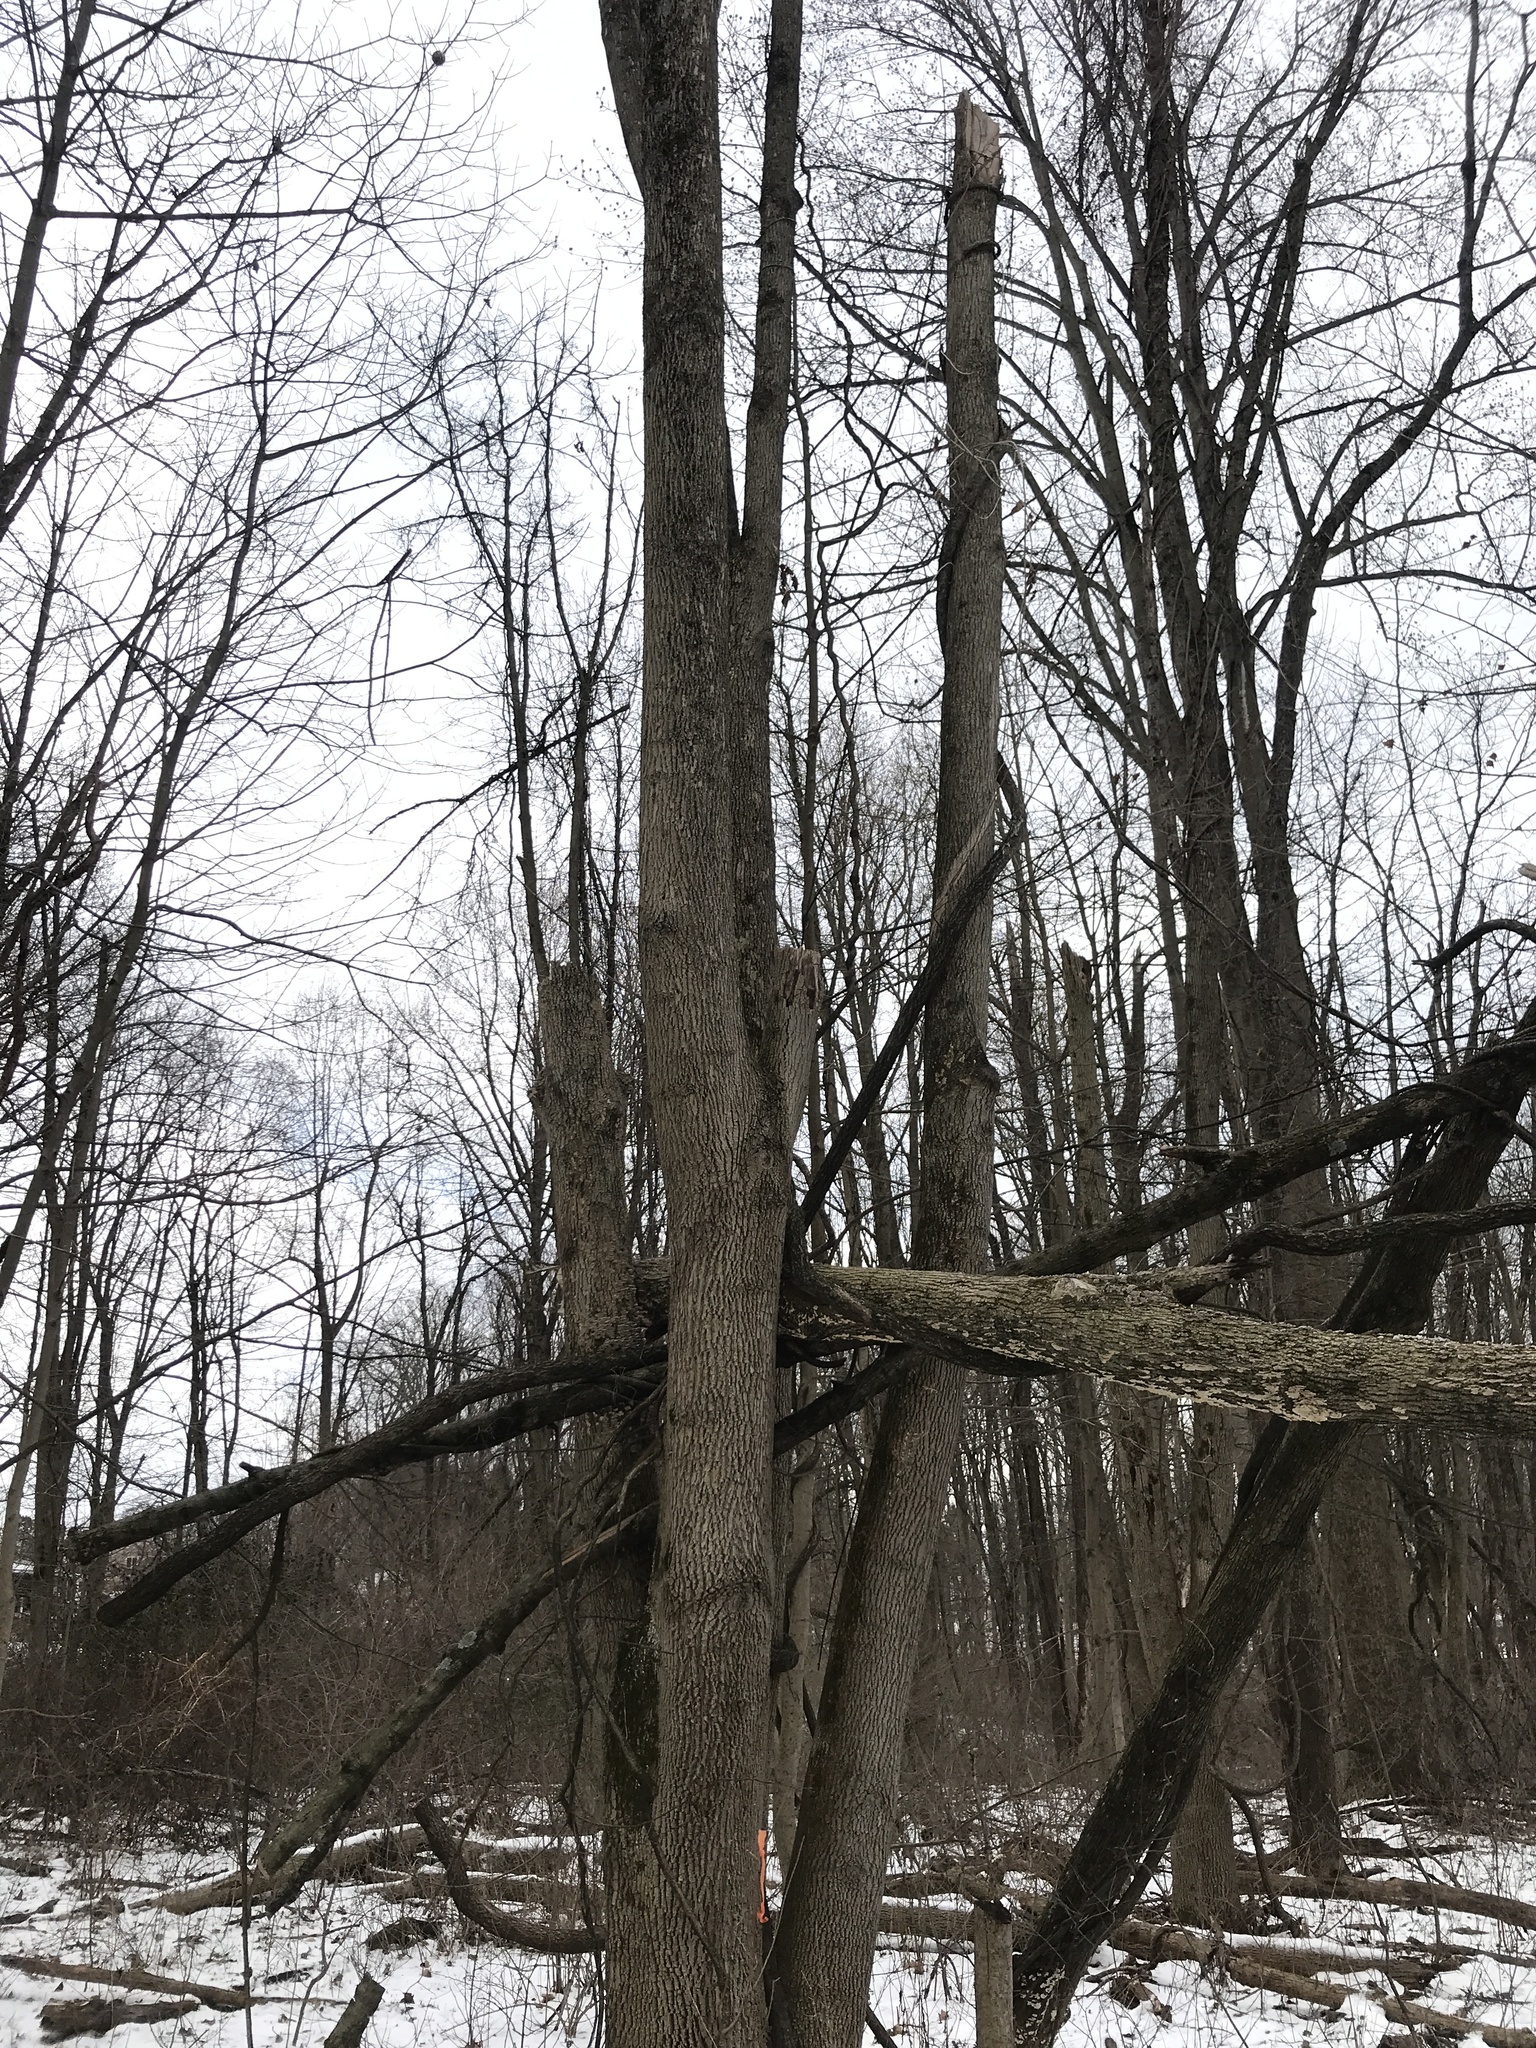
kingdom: Animalia
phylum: Arthropoda
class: Insecta
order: Coleoptera
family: Buprestidae
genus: Agrilus
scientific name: Agrilus planipennis
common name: Emerald ash borer
